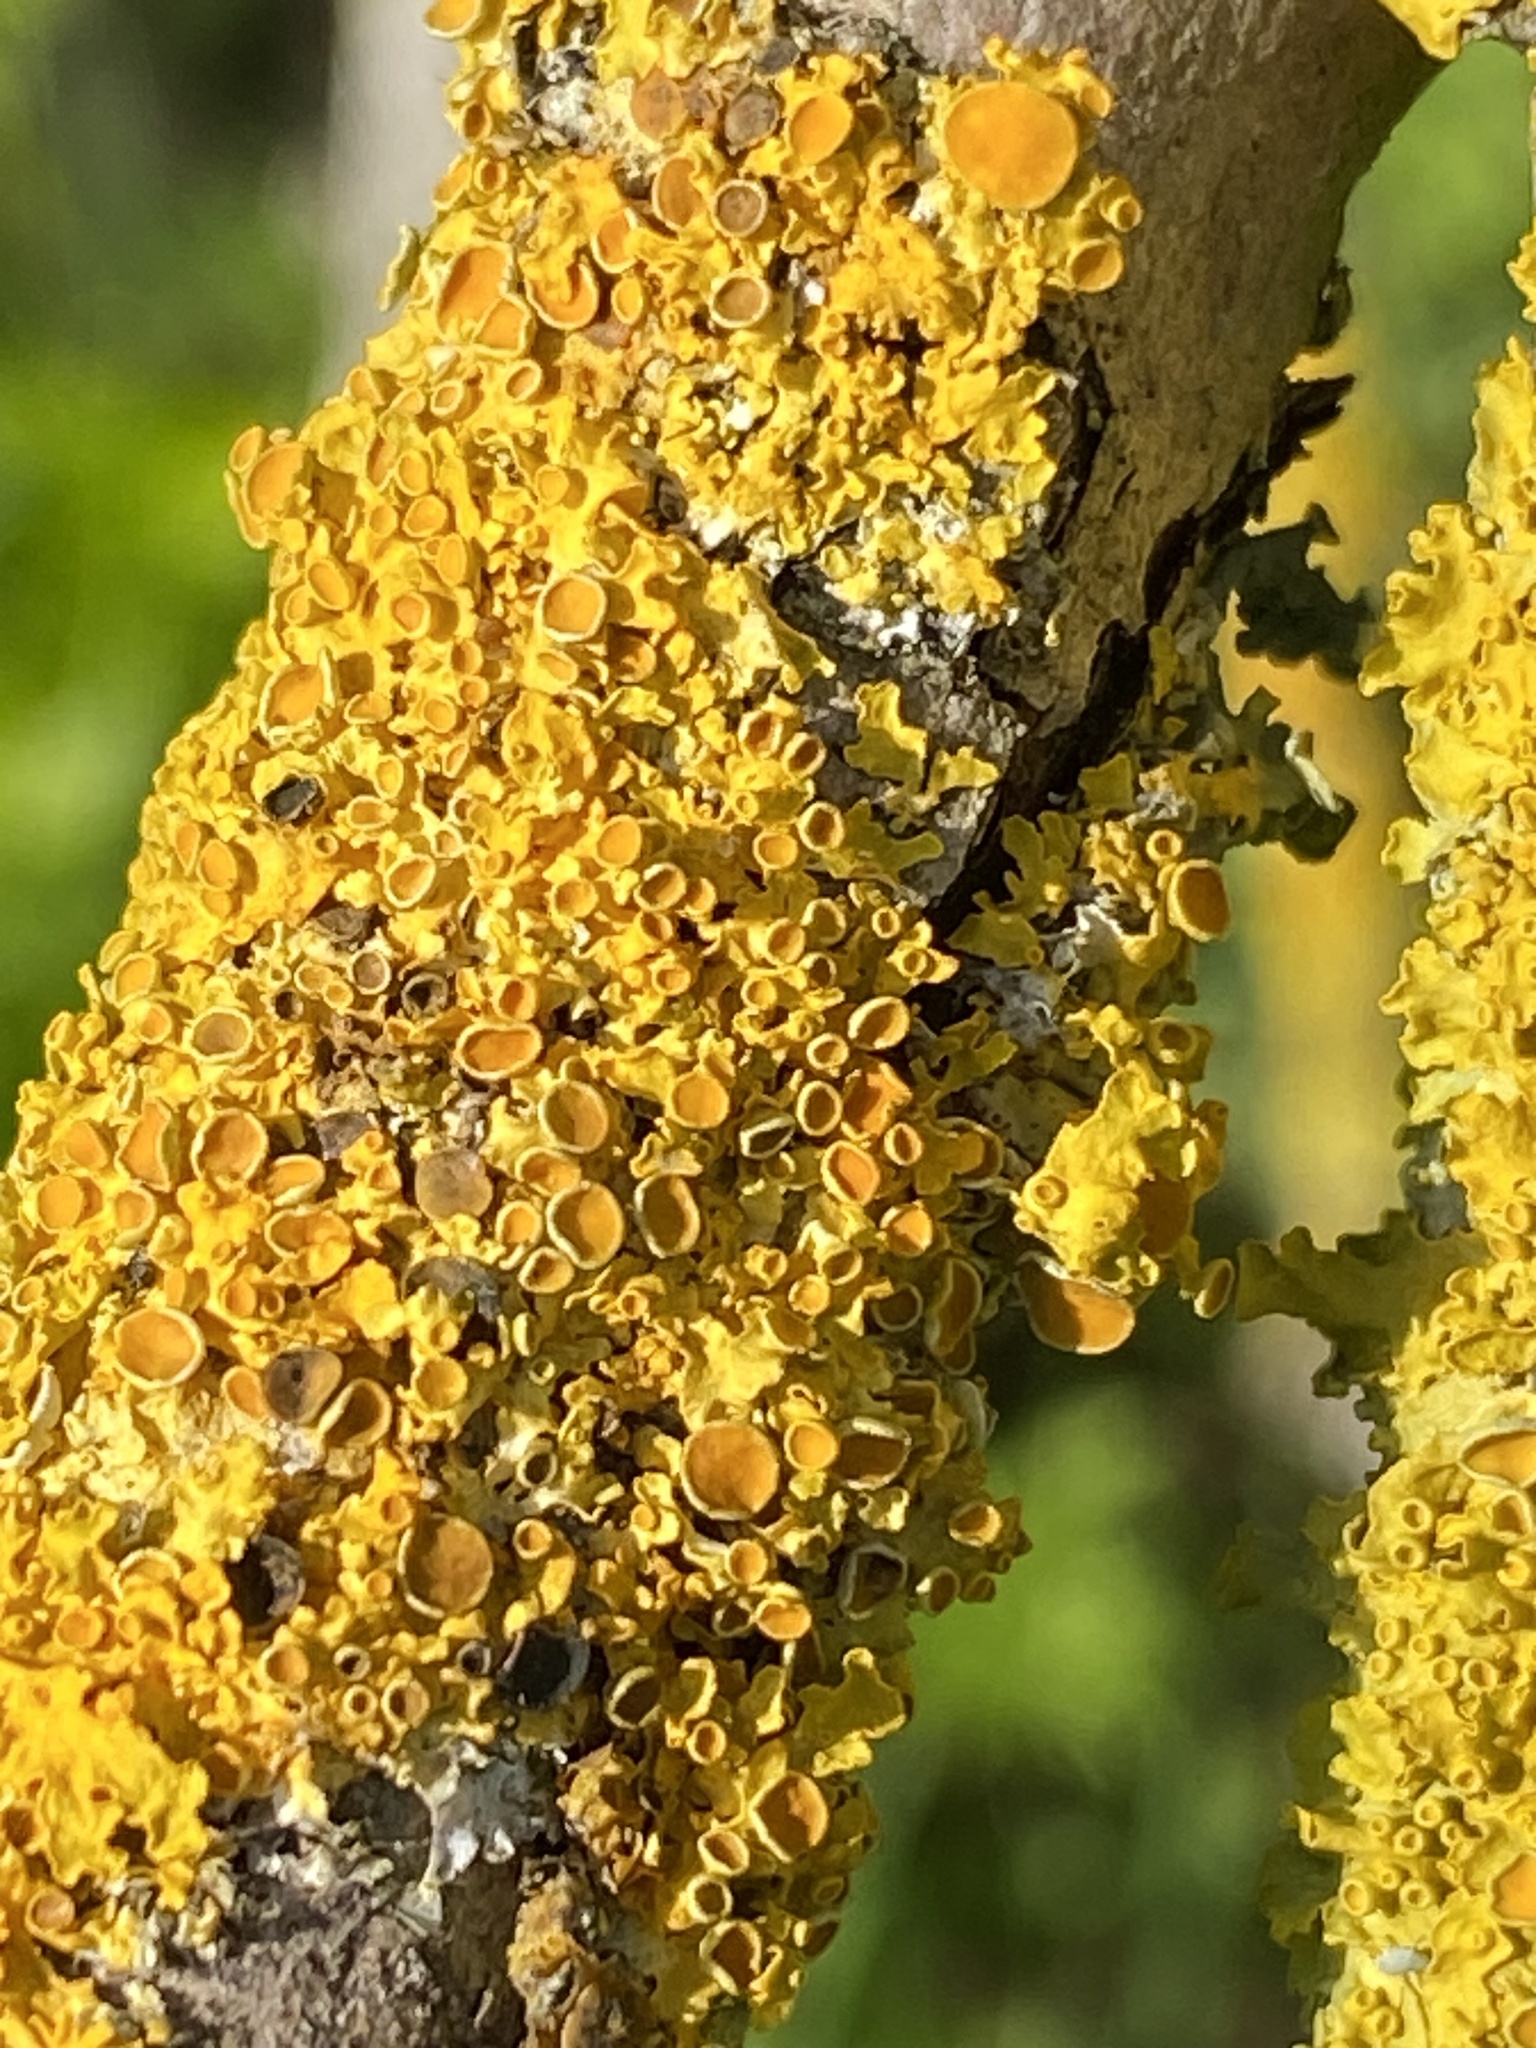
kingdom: Fungi
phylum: Ascomycota
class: Lecanoromycetes
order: Teloschistales
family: Teloschistaceae
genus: Xanthoria
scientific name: Xanthoria parietina
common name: Common orange lichen
